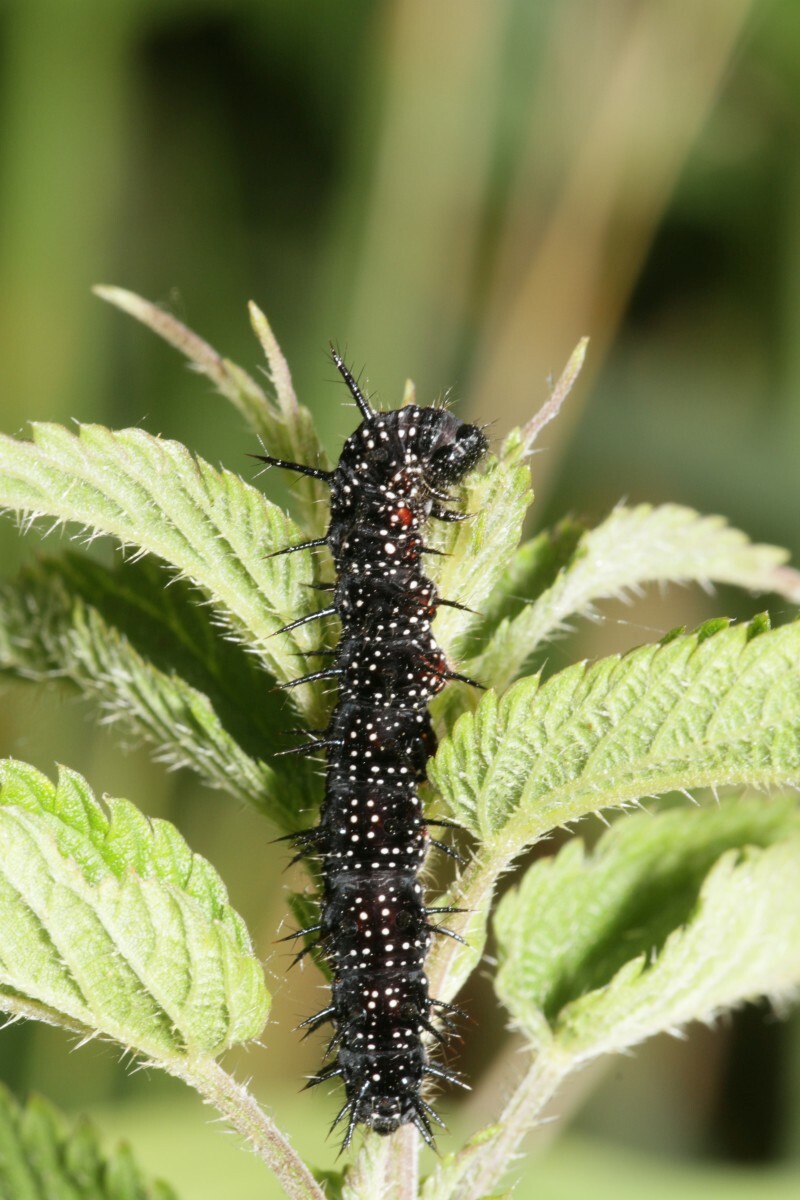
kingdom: Animalia
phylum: Arthropoda
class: Insecta
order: Lepidoptera
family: Nymphalidae
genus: Aglais
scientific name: Aglais io
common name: Peacock
